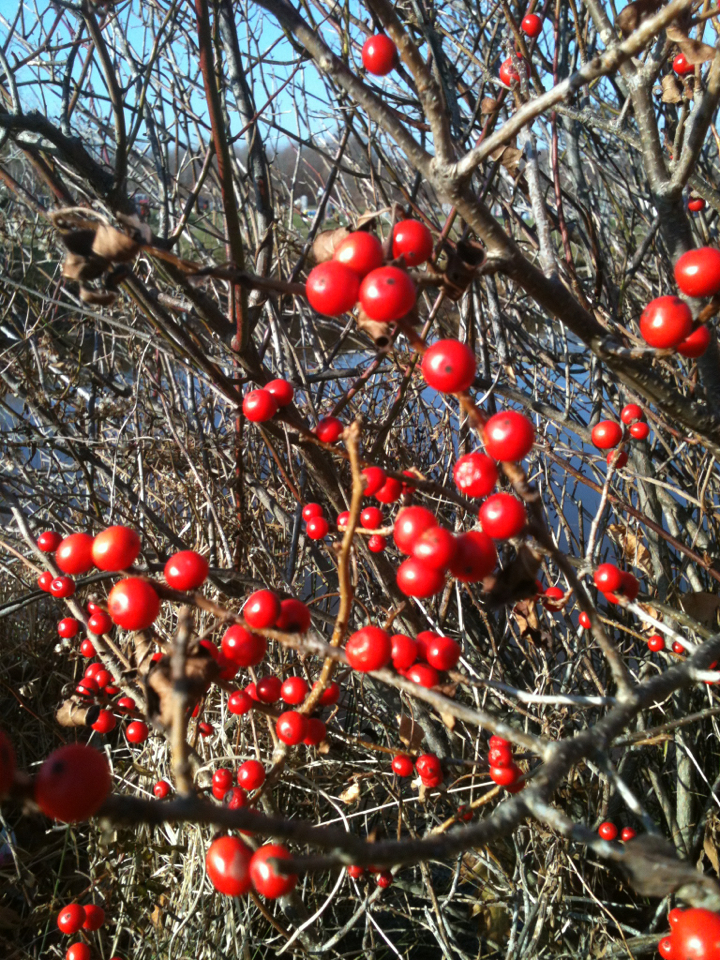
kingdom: Plantae
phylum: Tracheophyta
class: Magnoliopsida
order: Aquifoliales
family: Aquifoliaceae
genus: Ilex
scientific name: Ilex verticillata
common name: Virginia winterberry
